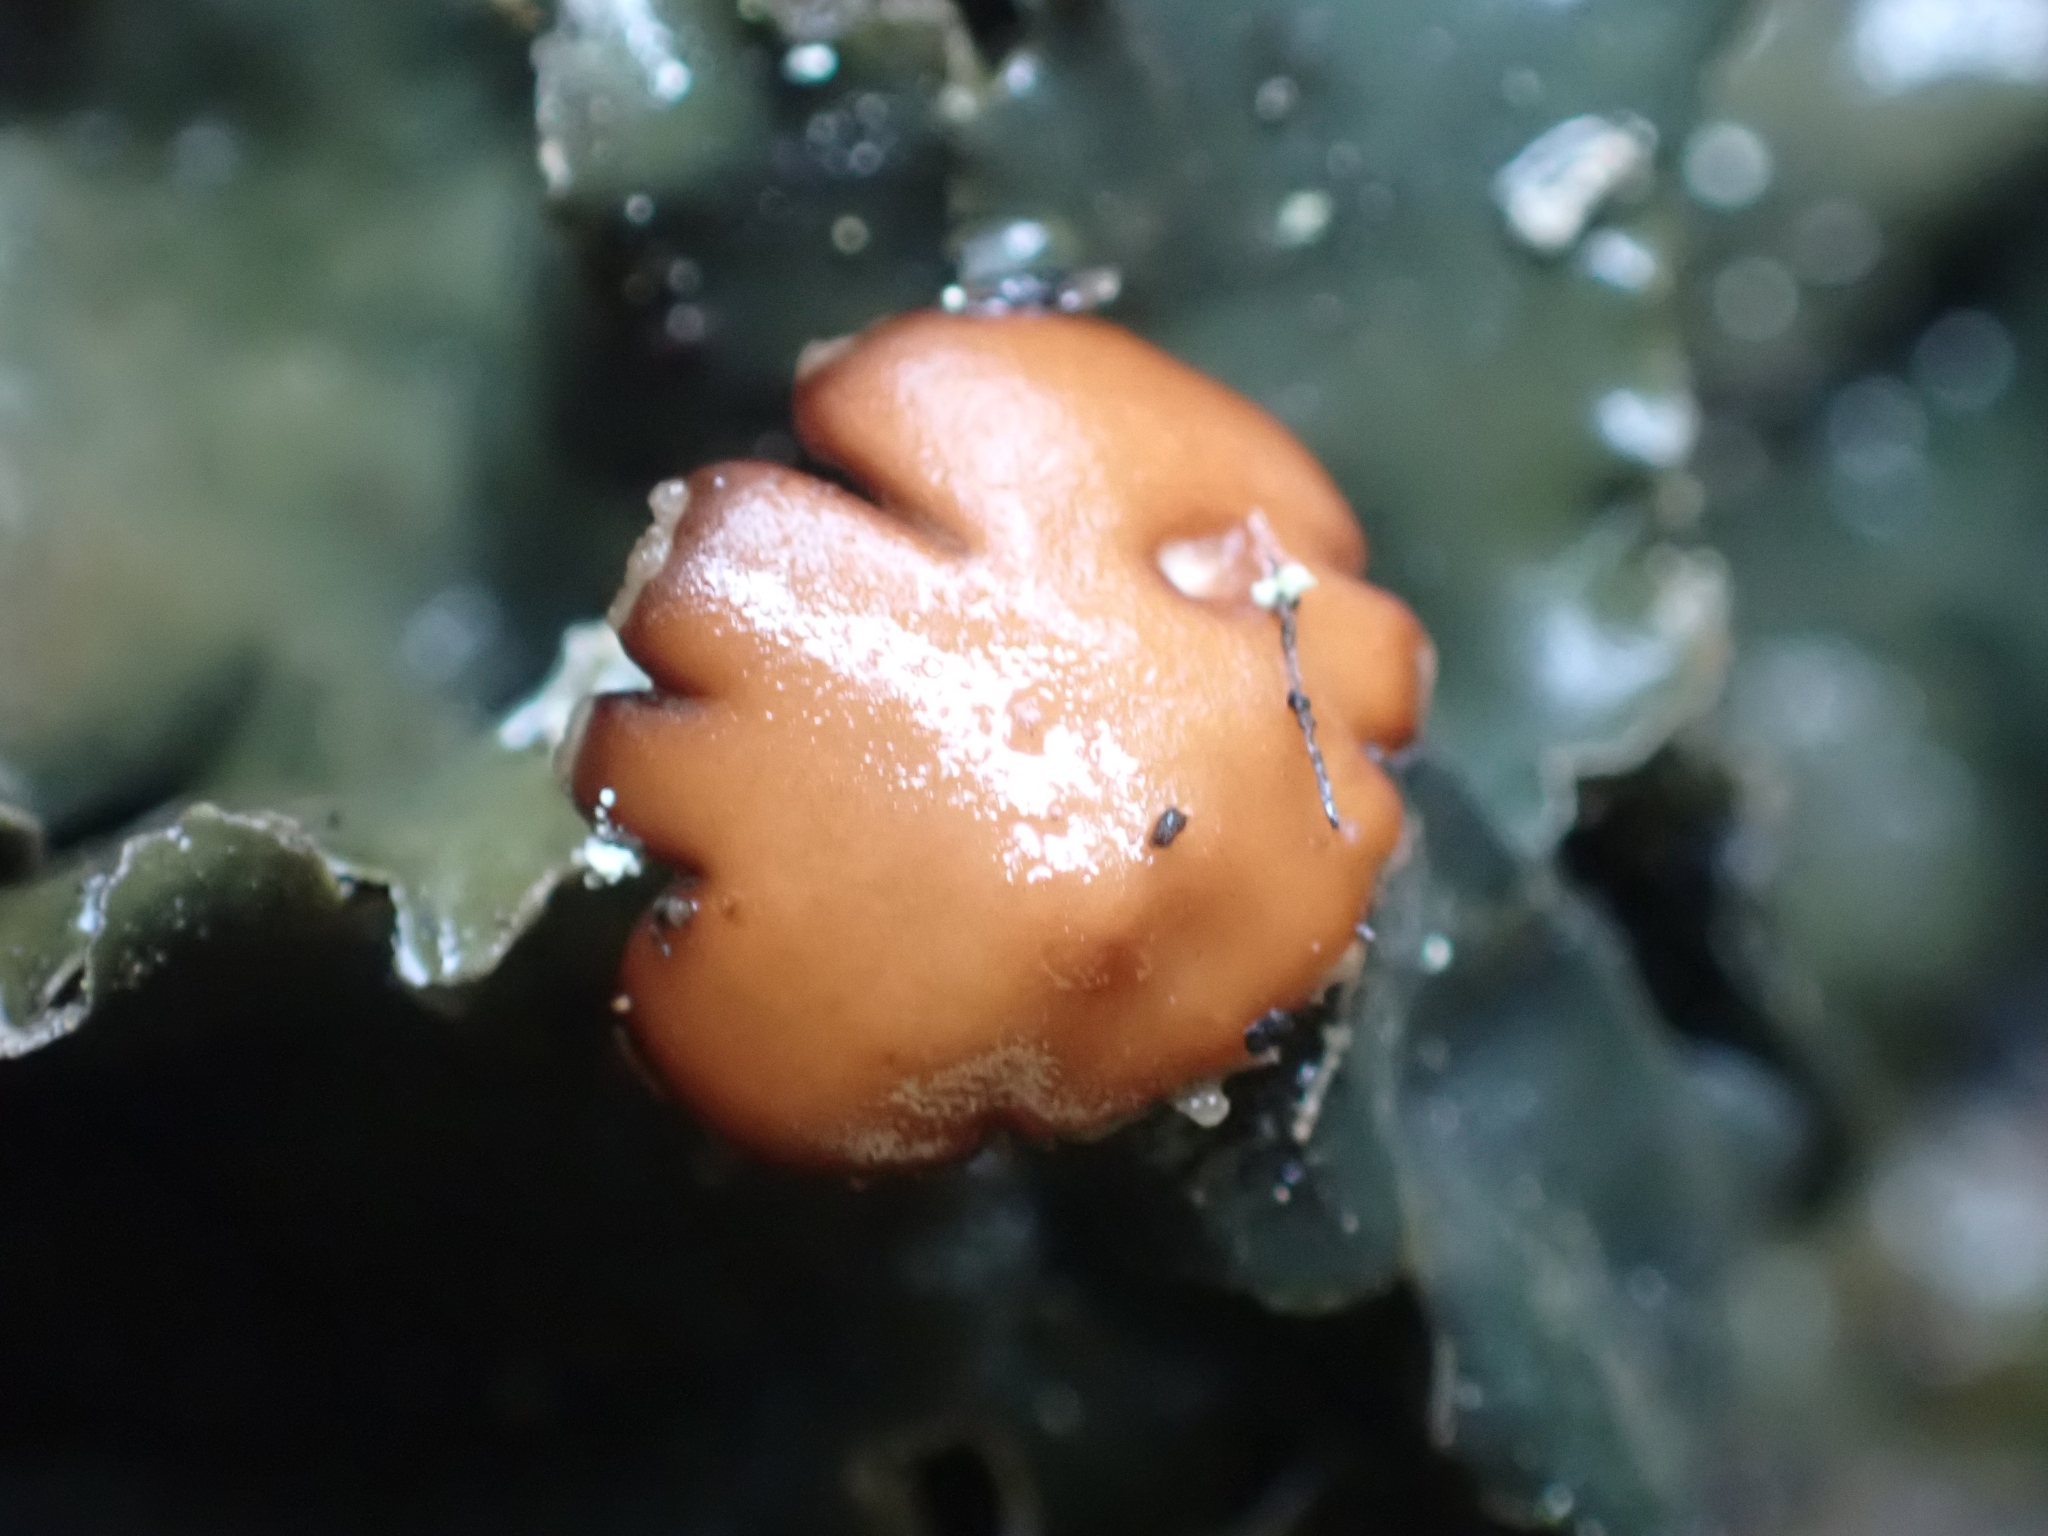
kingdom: Fungi
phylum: Ascomycota
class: Lecanoromycetes
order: Peltigerales
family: Peltigeraceae
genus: Peltigera
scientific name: Peltigera horizontalis
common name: Flat fruited pelt
